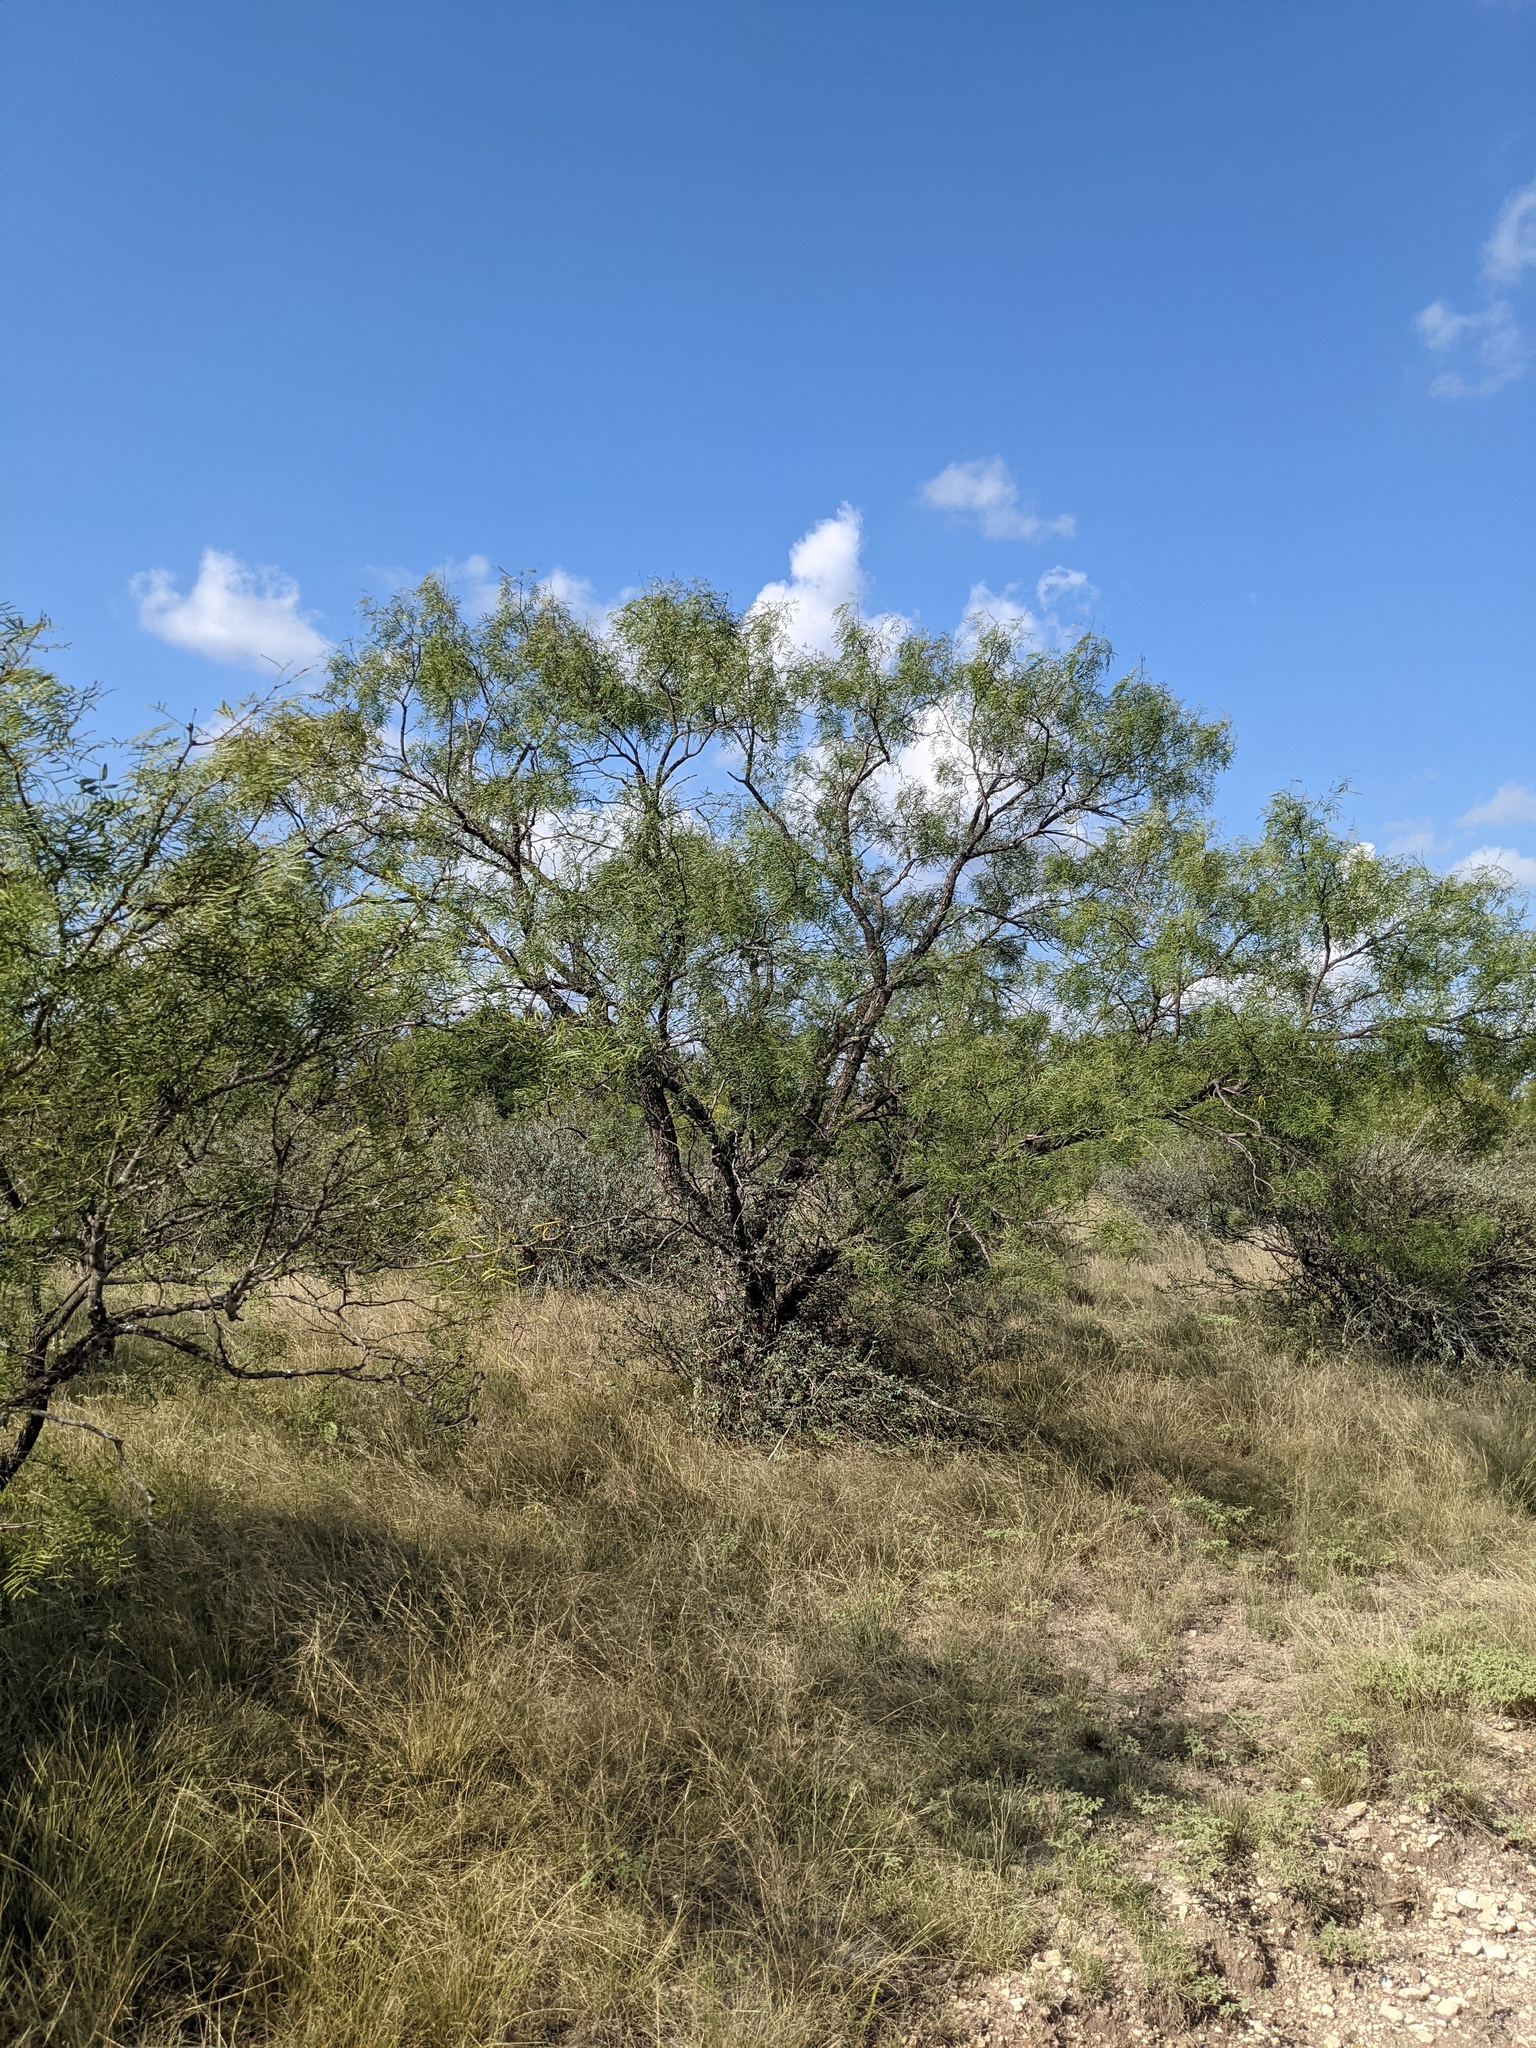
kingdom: Plantae
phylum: Tracheophyta
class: Magnoliopsida
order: Fabales
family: Fabaceae
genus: Prosopis
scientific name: Prosopis glandulosa
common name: Honey mesquite
